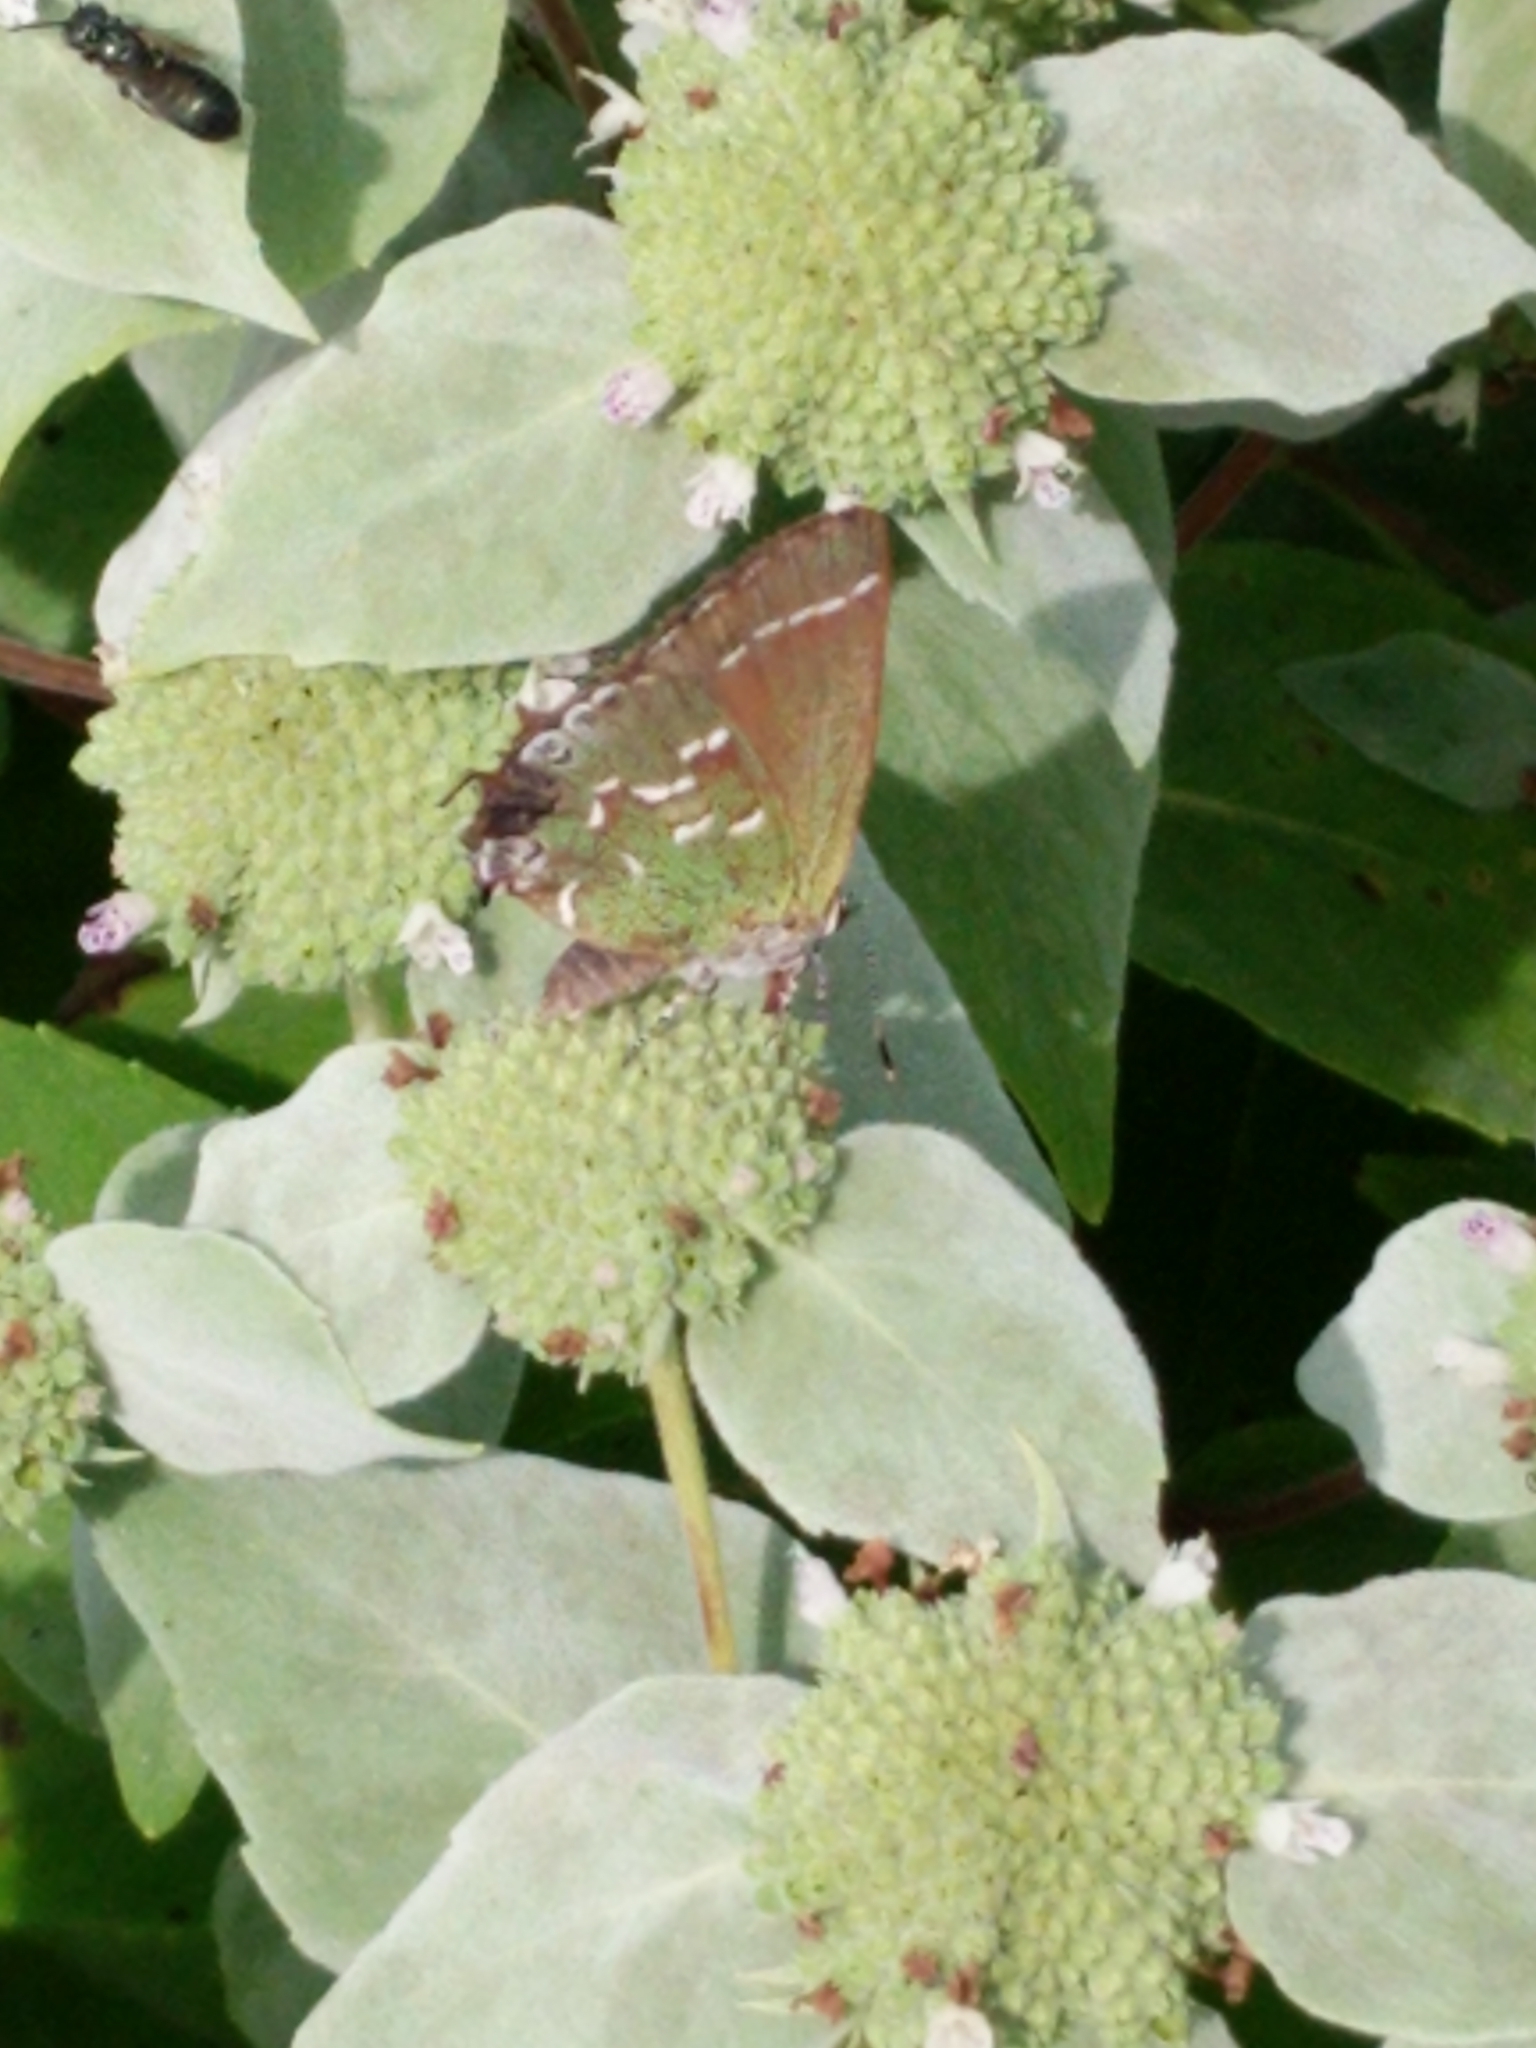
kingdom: Animalia
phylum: Arthropoda
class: Insecta
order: Lepidoptera
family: Lycaenidae
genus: Mitoura
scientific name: Mitoura gryneus
